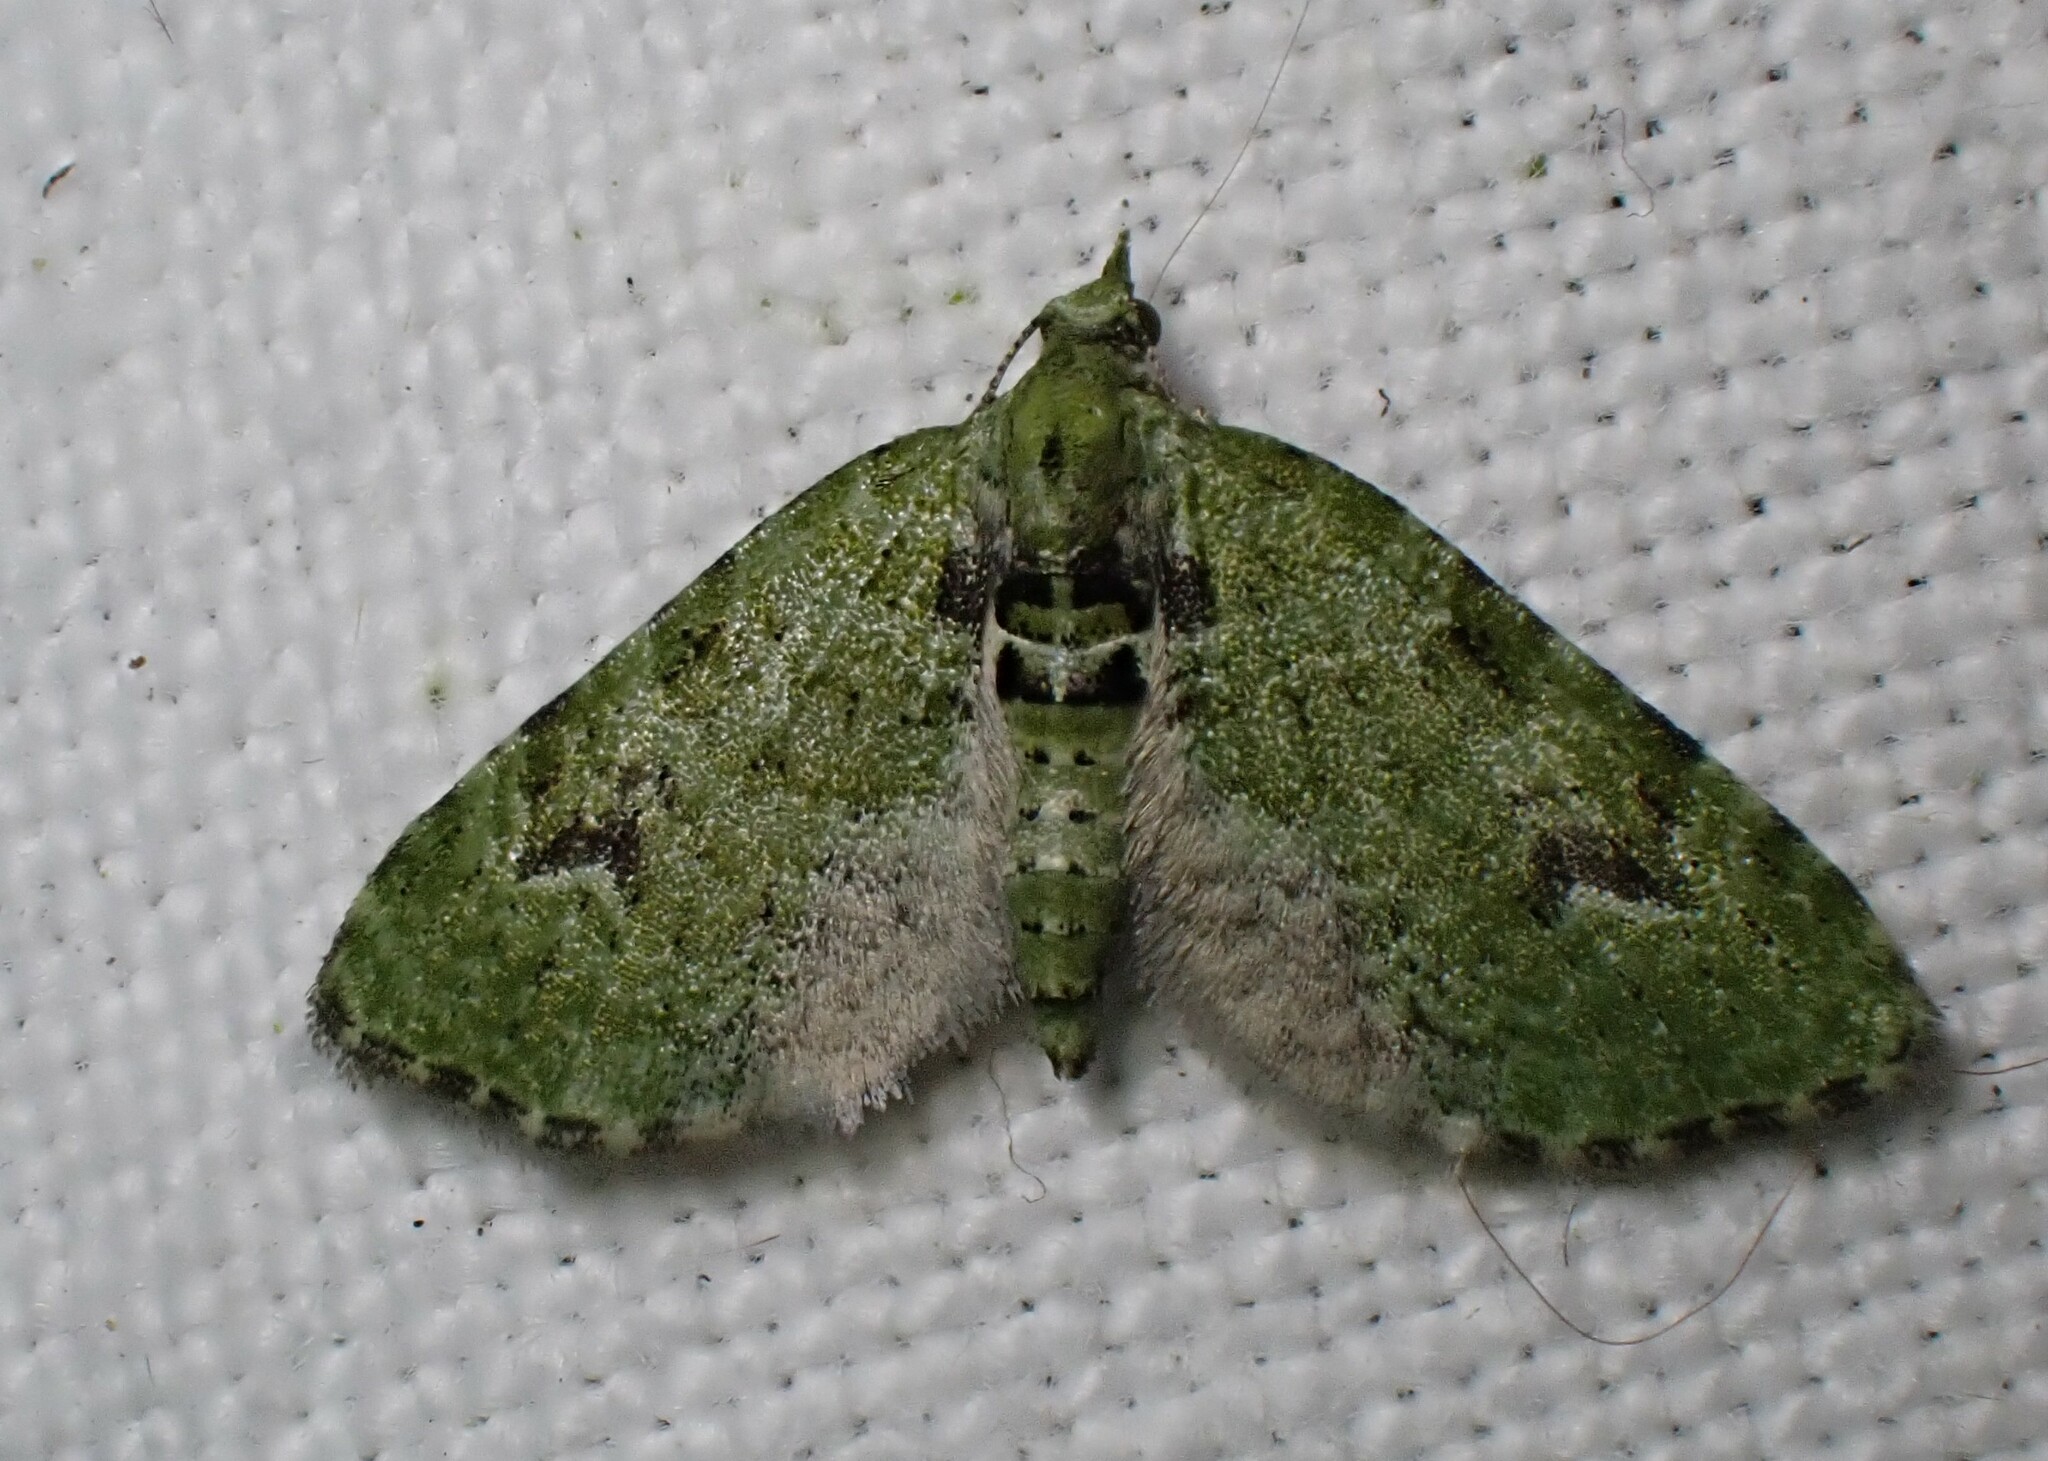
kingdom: Animalia
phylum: Arthropoda
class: Insecta
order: Lepidoptera
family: Geometridae
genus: Chloroclystis
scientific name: Chloroclystis v-ata
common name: V-pug
